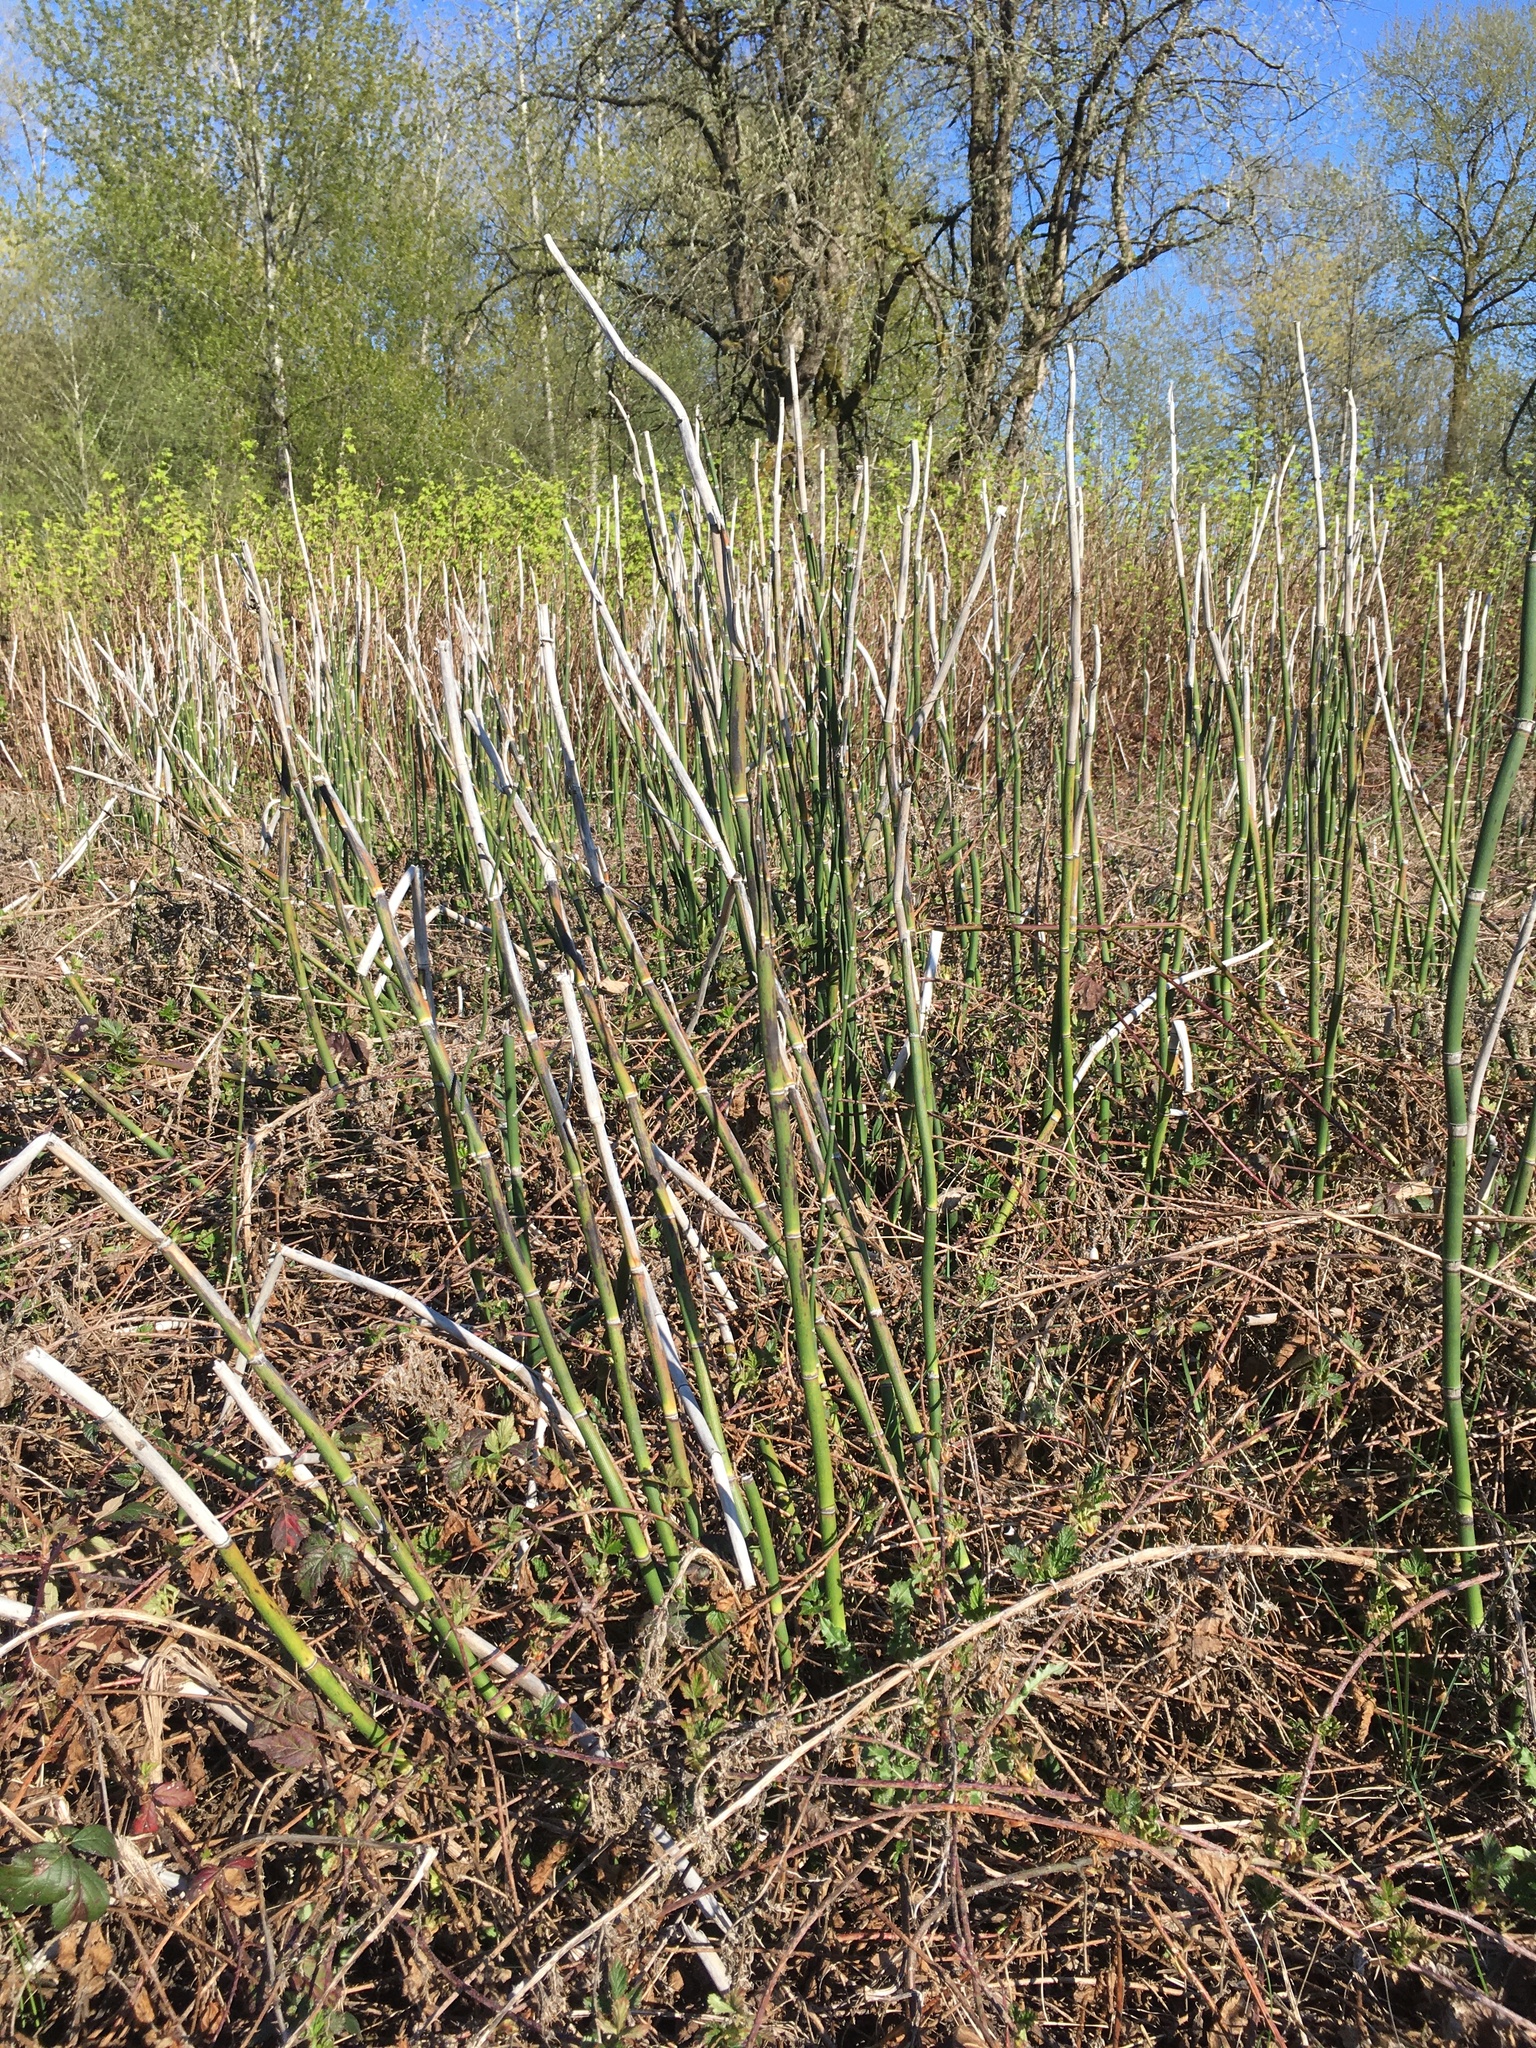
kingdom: Plantae
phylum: Tracheophyta
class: Polypodiopsida
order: Equisetales
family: Equisetaceae
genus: Equisetum
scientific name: Equisetum praealtum
